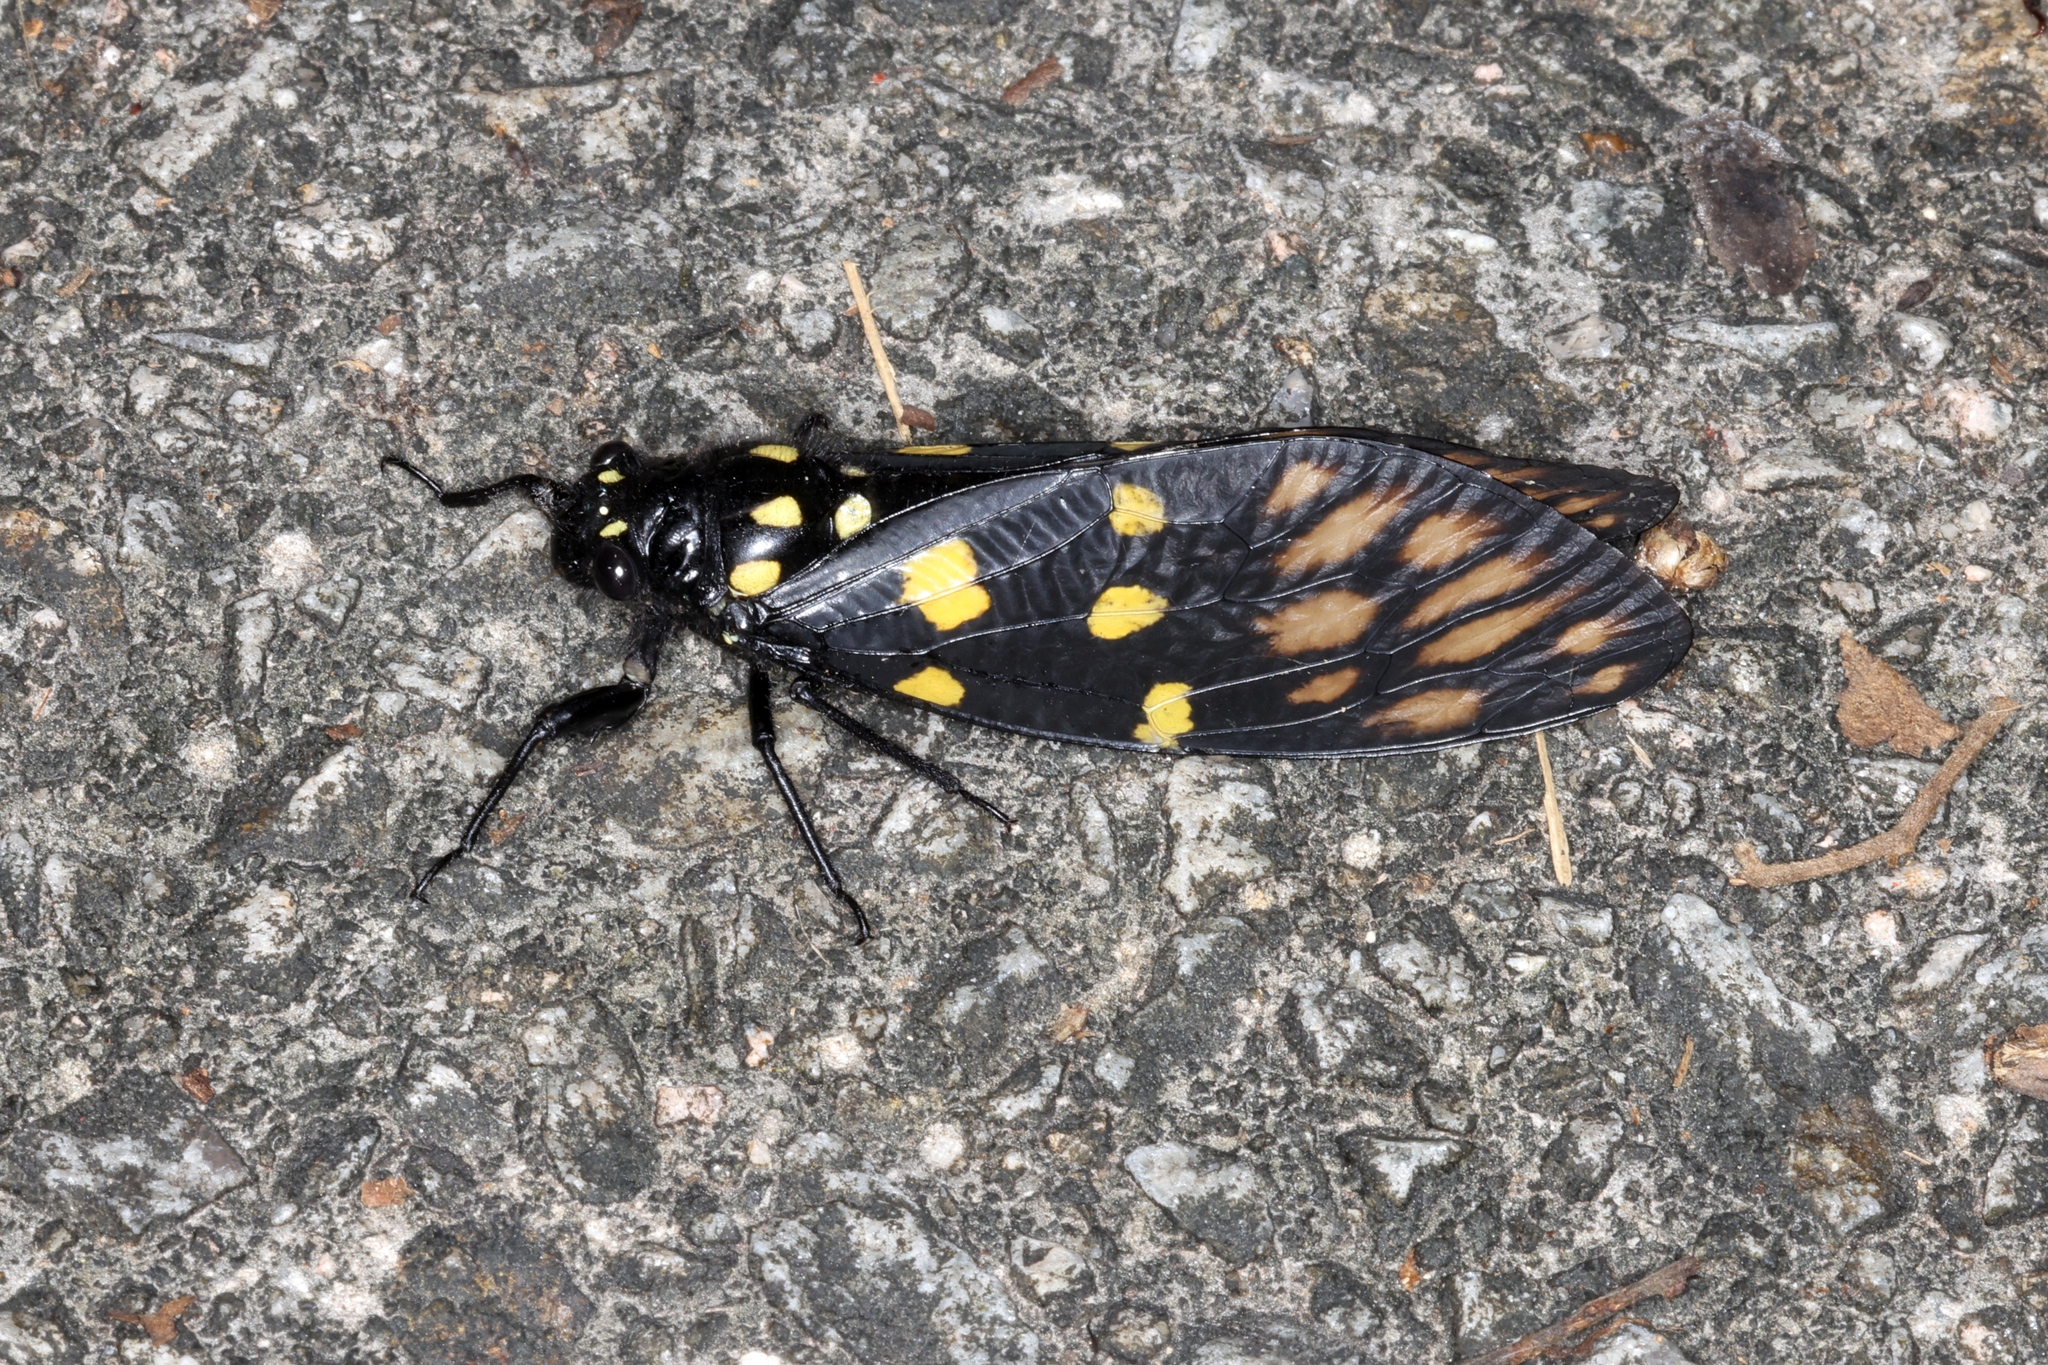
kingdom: Animalia
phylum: Arthropoda
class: Insecta
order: Hemiptera
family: Cicadidae
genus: Gaeana
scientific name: Gaeana maculata
